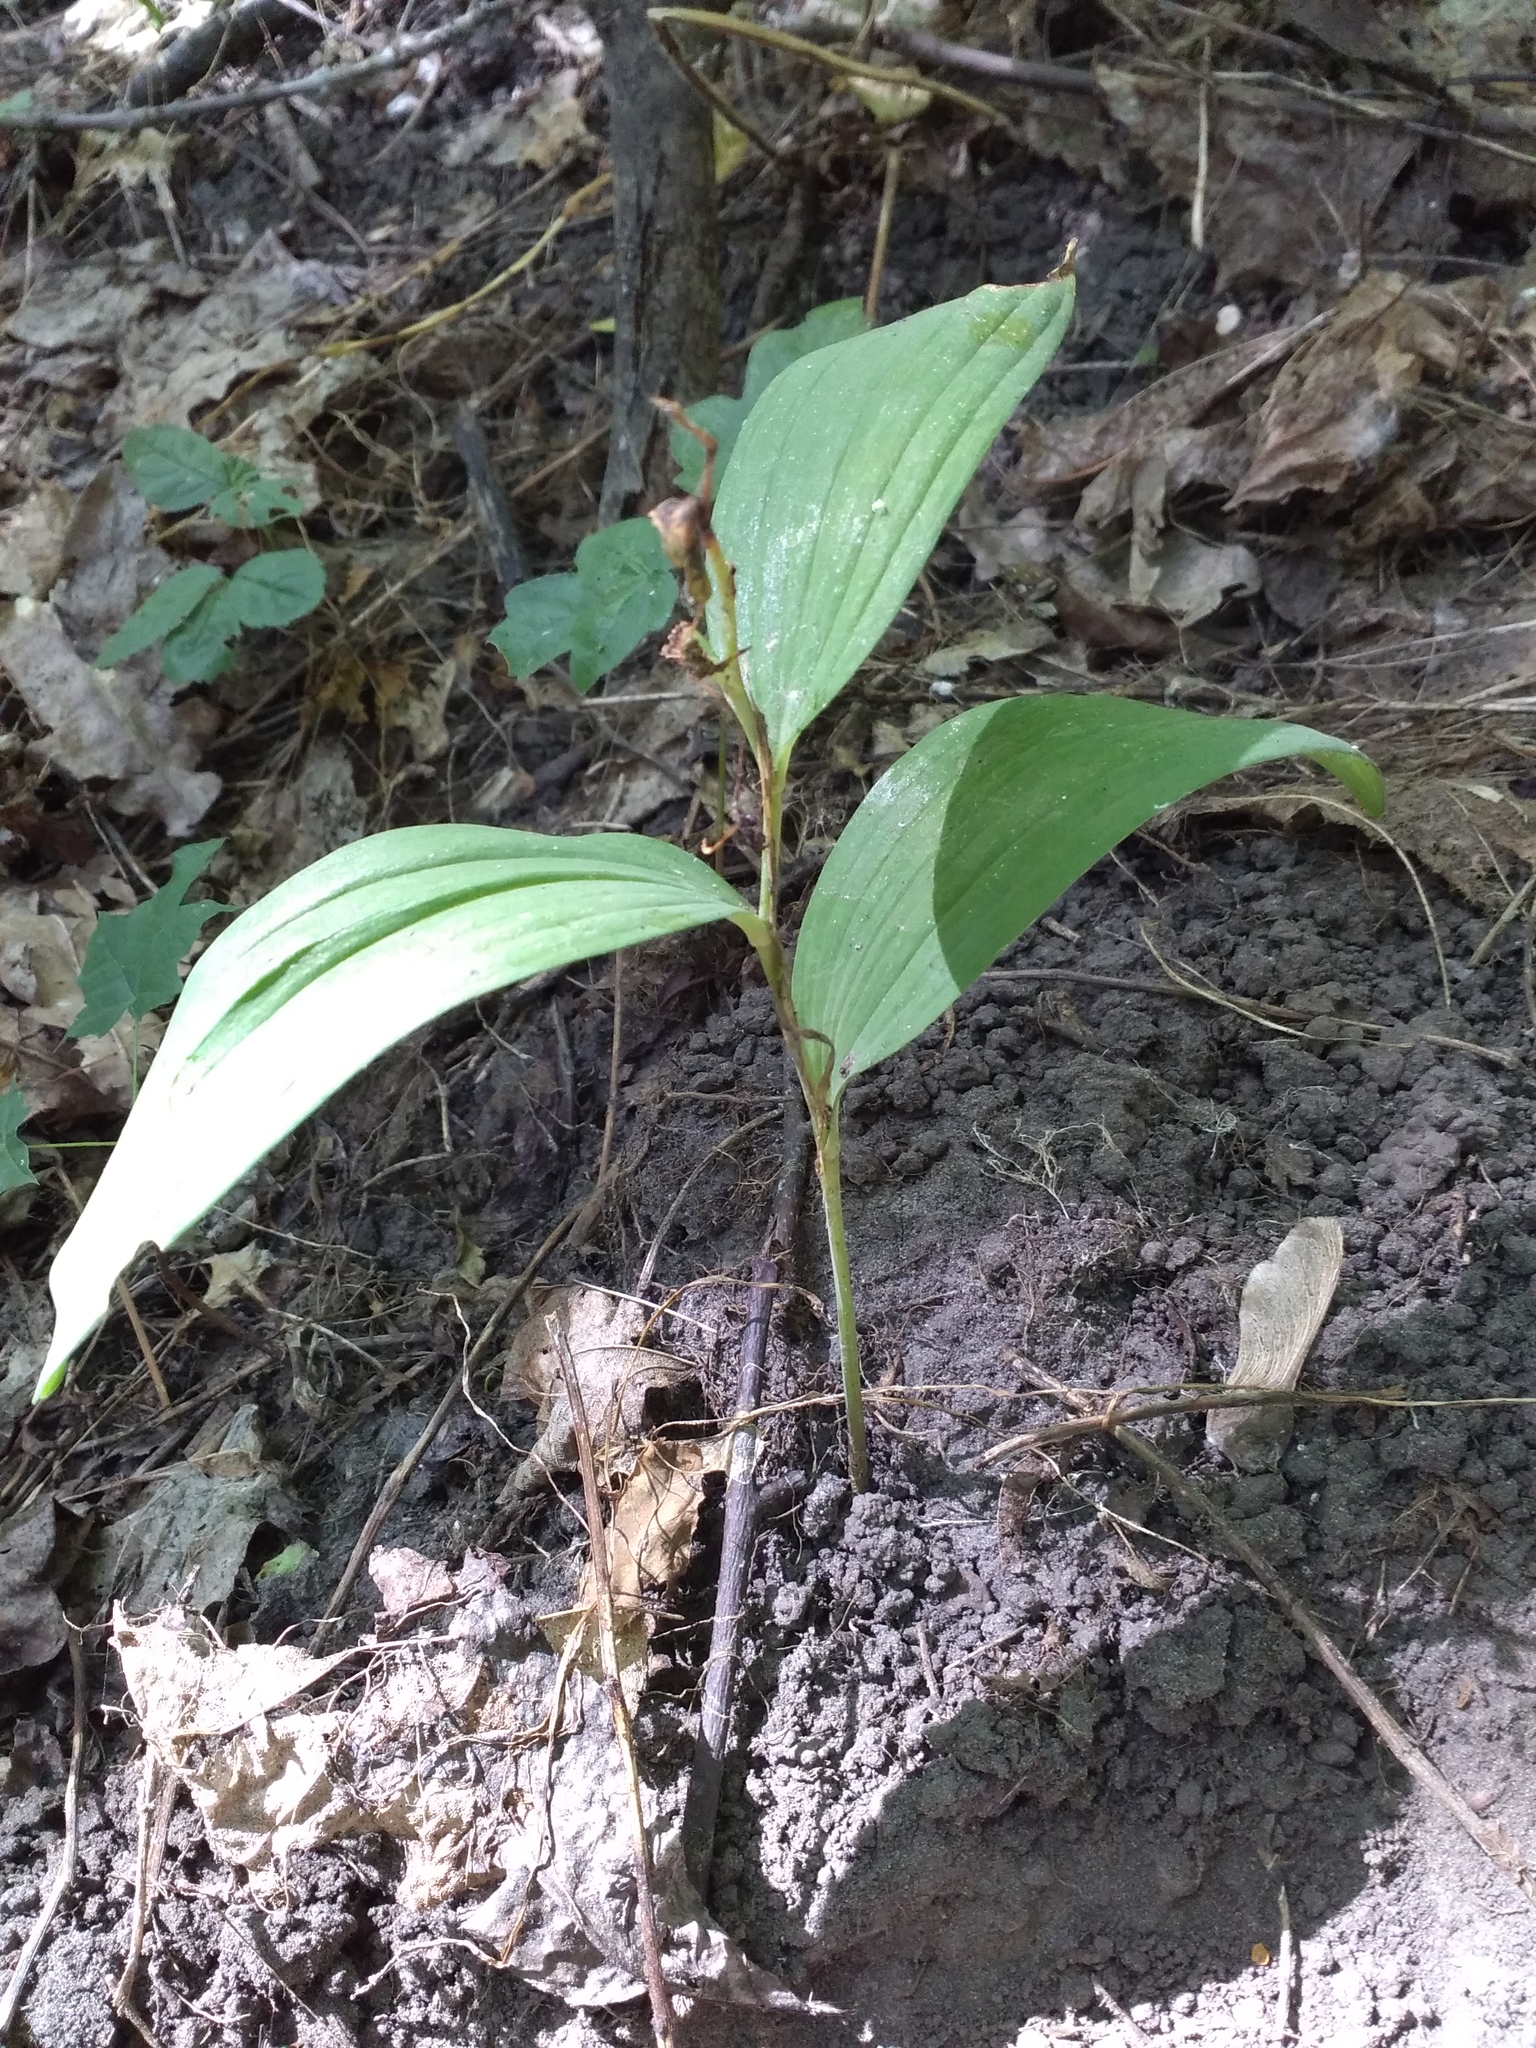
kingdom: Plantae
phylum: Tracheophyta
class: Liliopsida
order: Asparagales
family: Orchidaceae
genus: Epipactis
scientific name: Epipactis helleborine
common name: Broad-leaved helleborine
